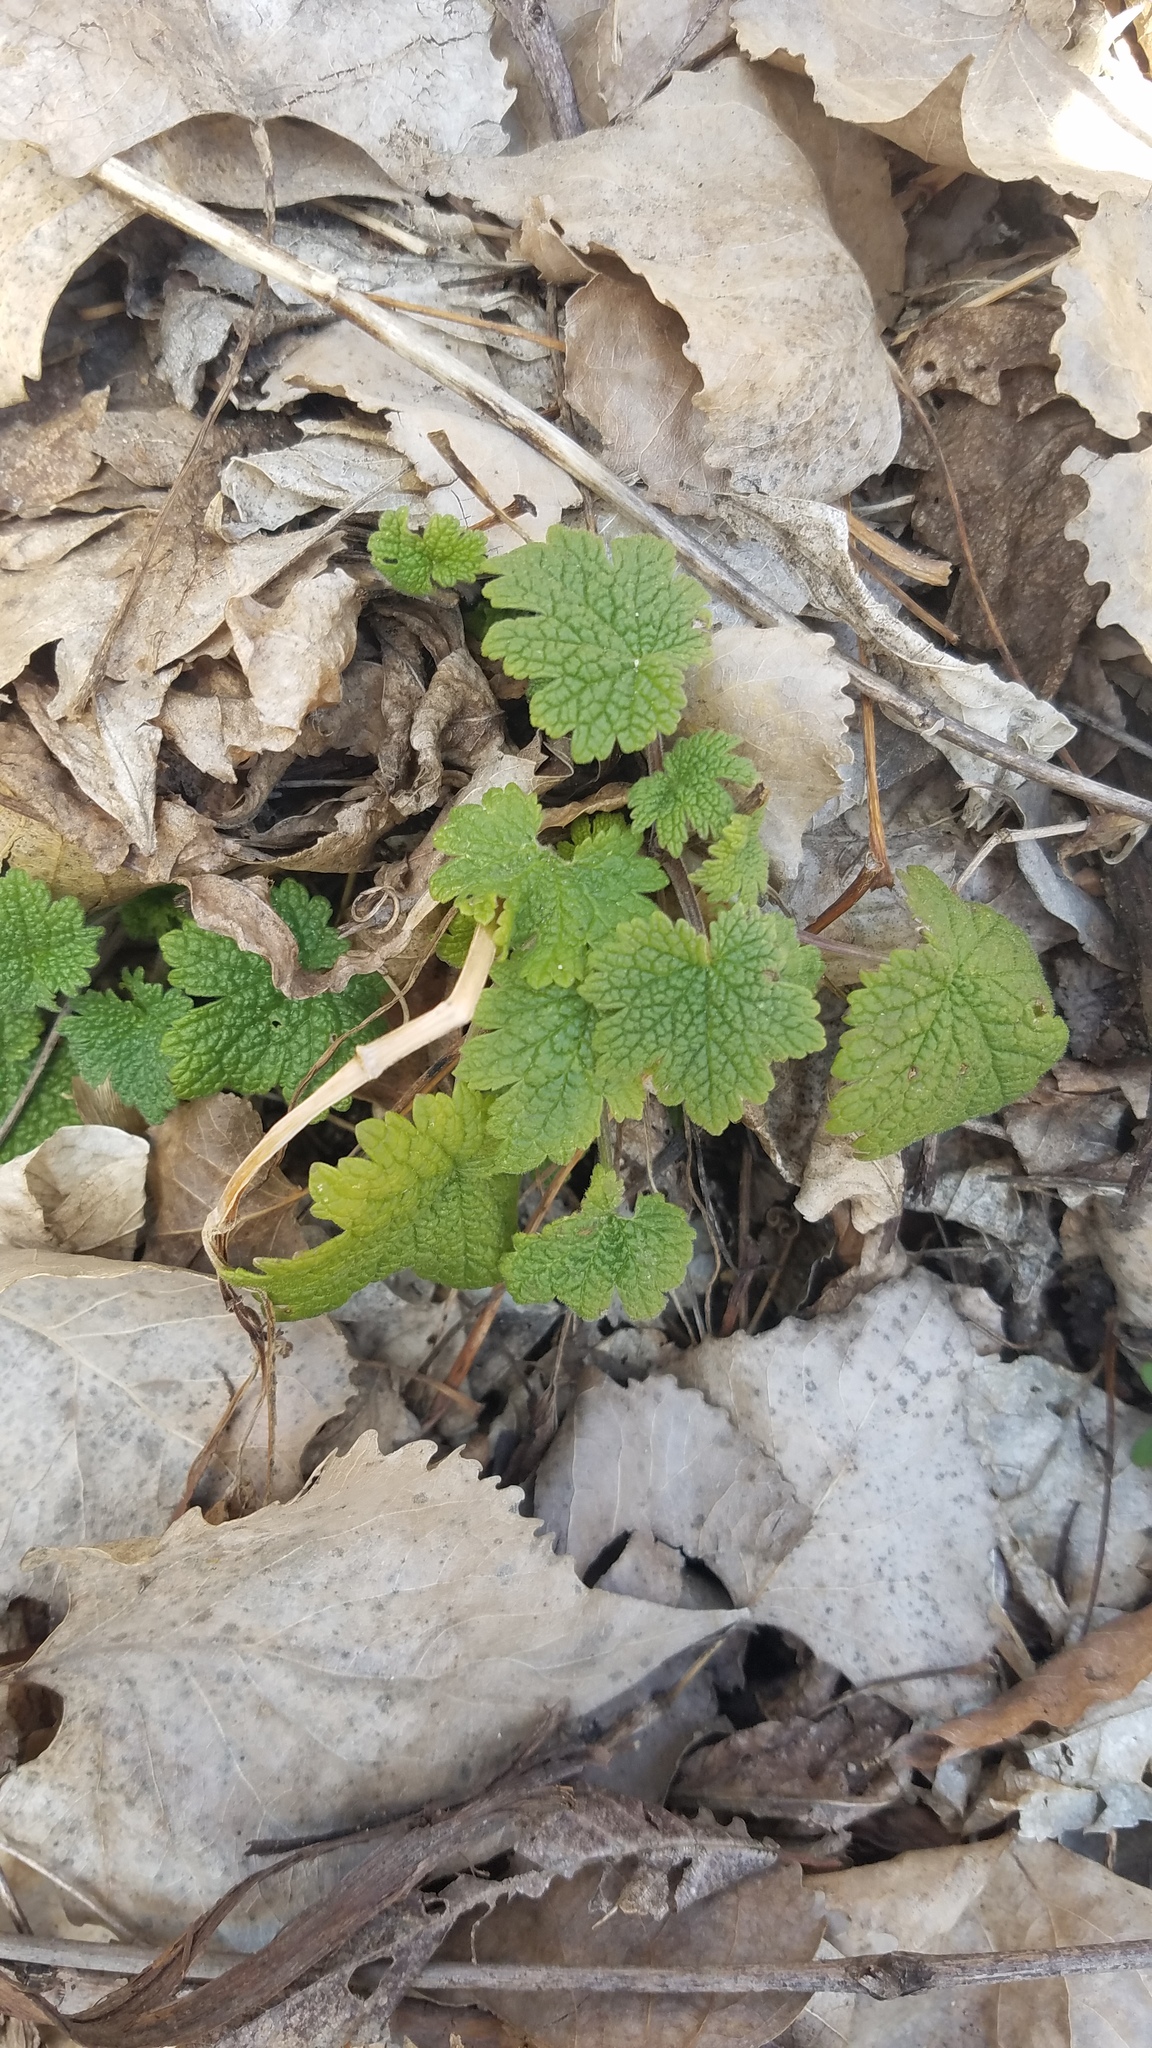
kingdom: Plantae
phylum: Tracheophyta
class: Magnoliopsida
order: Lamiales
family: Lamiaceae
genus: Leonurus
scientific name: Leonurus cardiaca
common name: Motherwort
